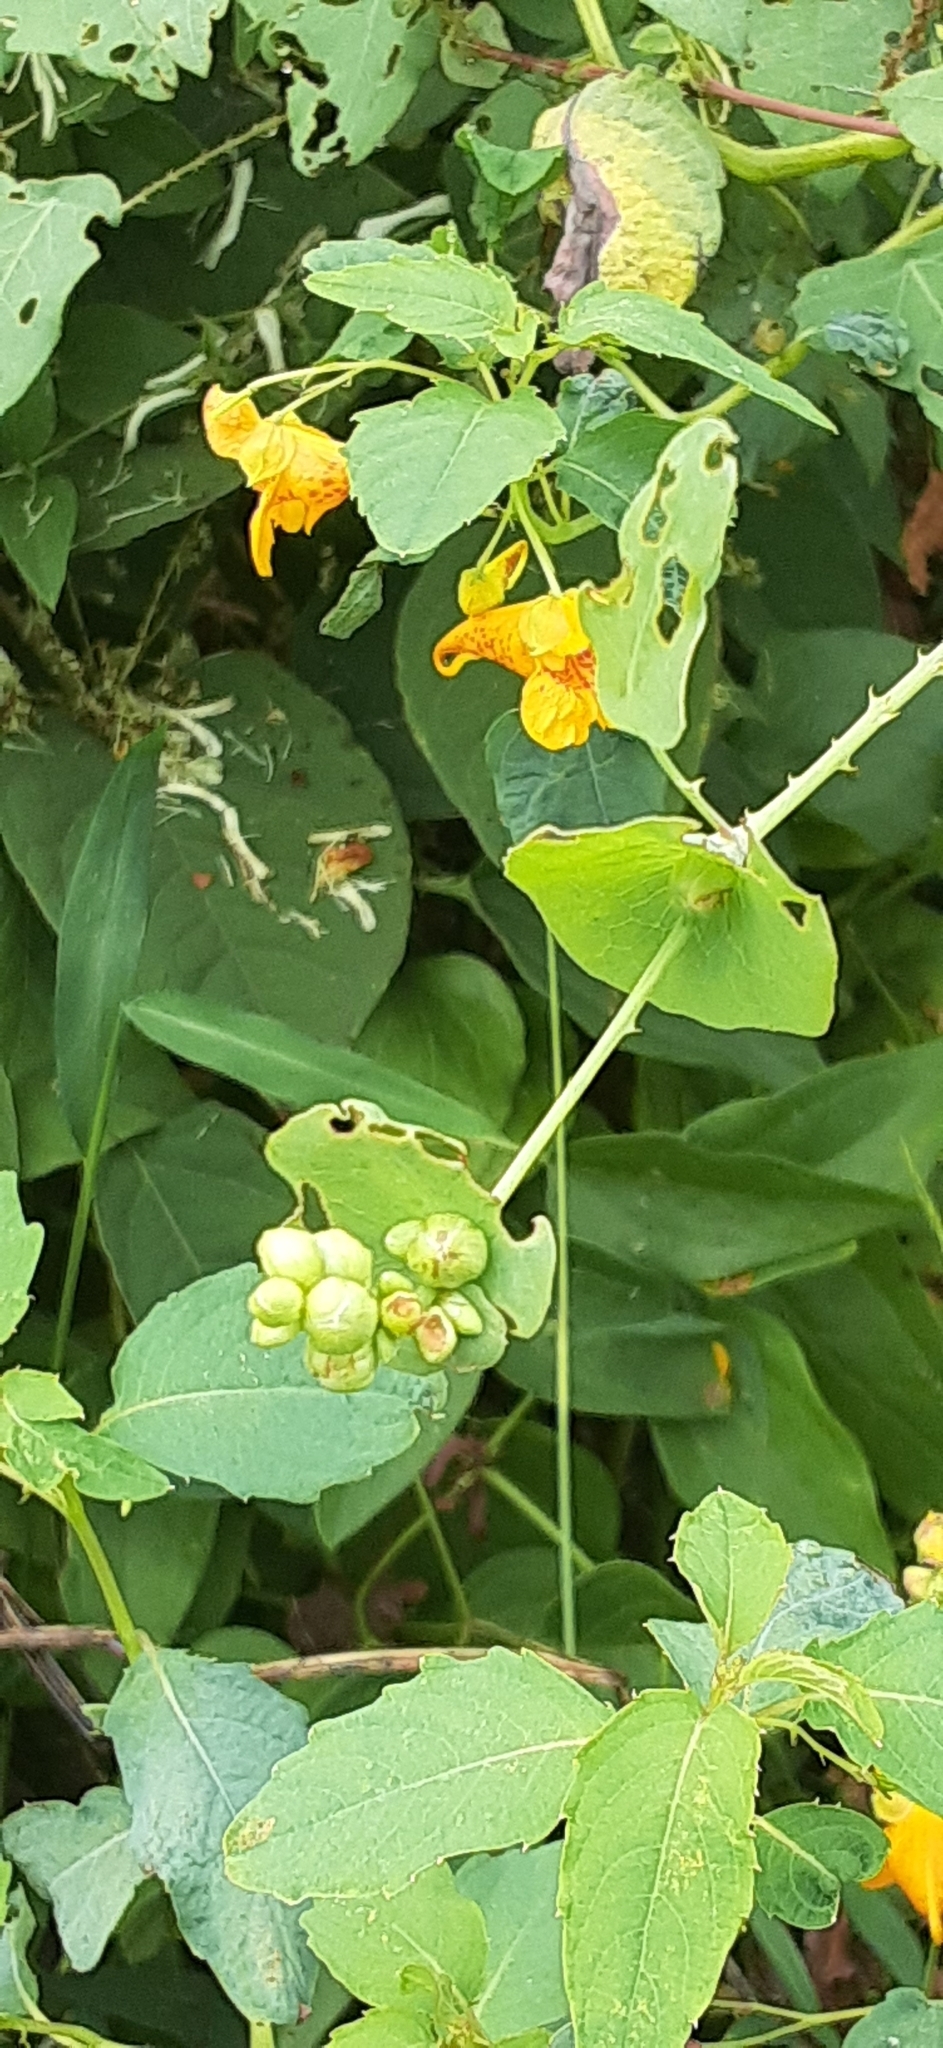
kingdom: Plantae
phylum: Tracheophyta
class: Magnoliopsida
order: Caryophyllales
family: Polygonaceae
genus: Persicaria
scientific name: Persicaria perfoliata
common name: Asiatic tearthumb
